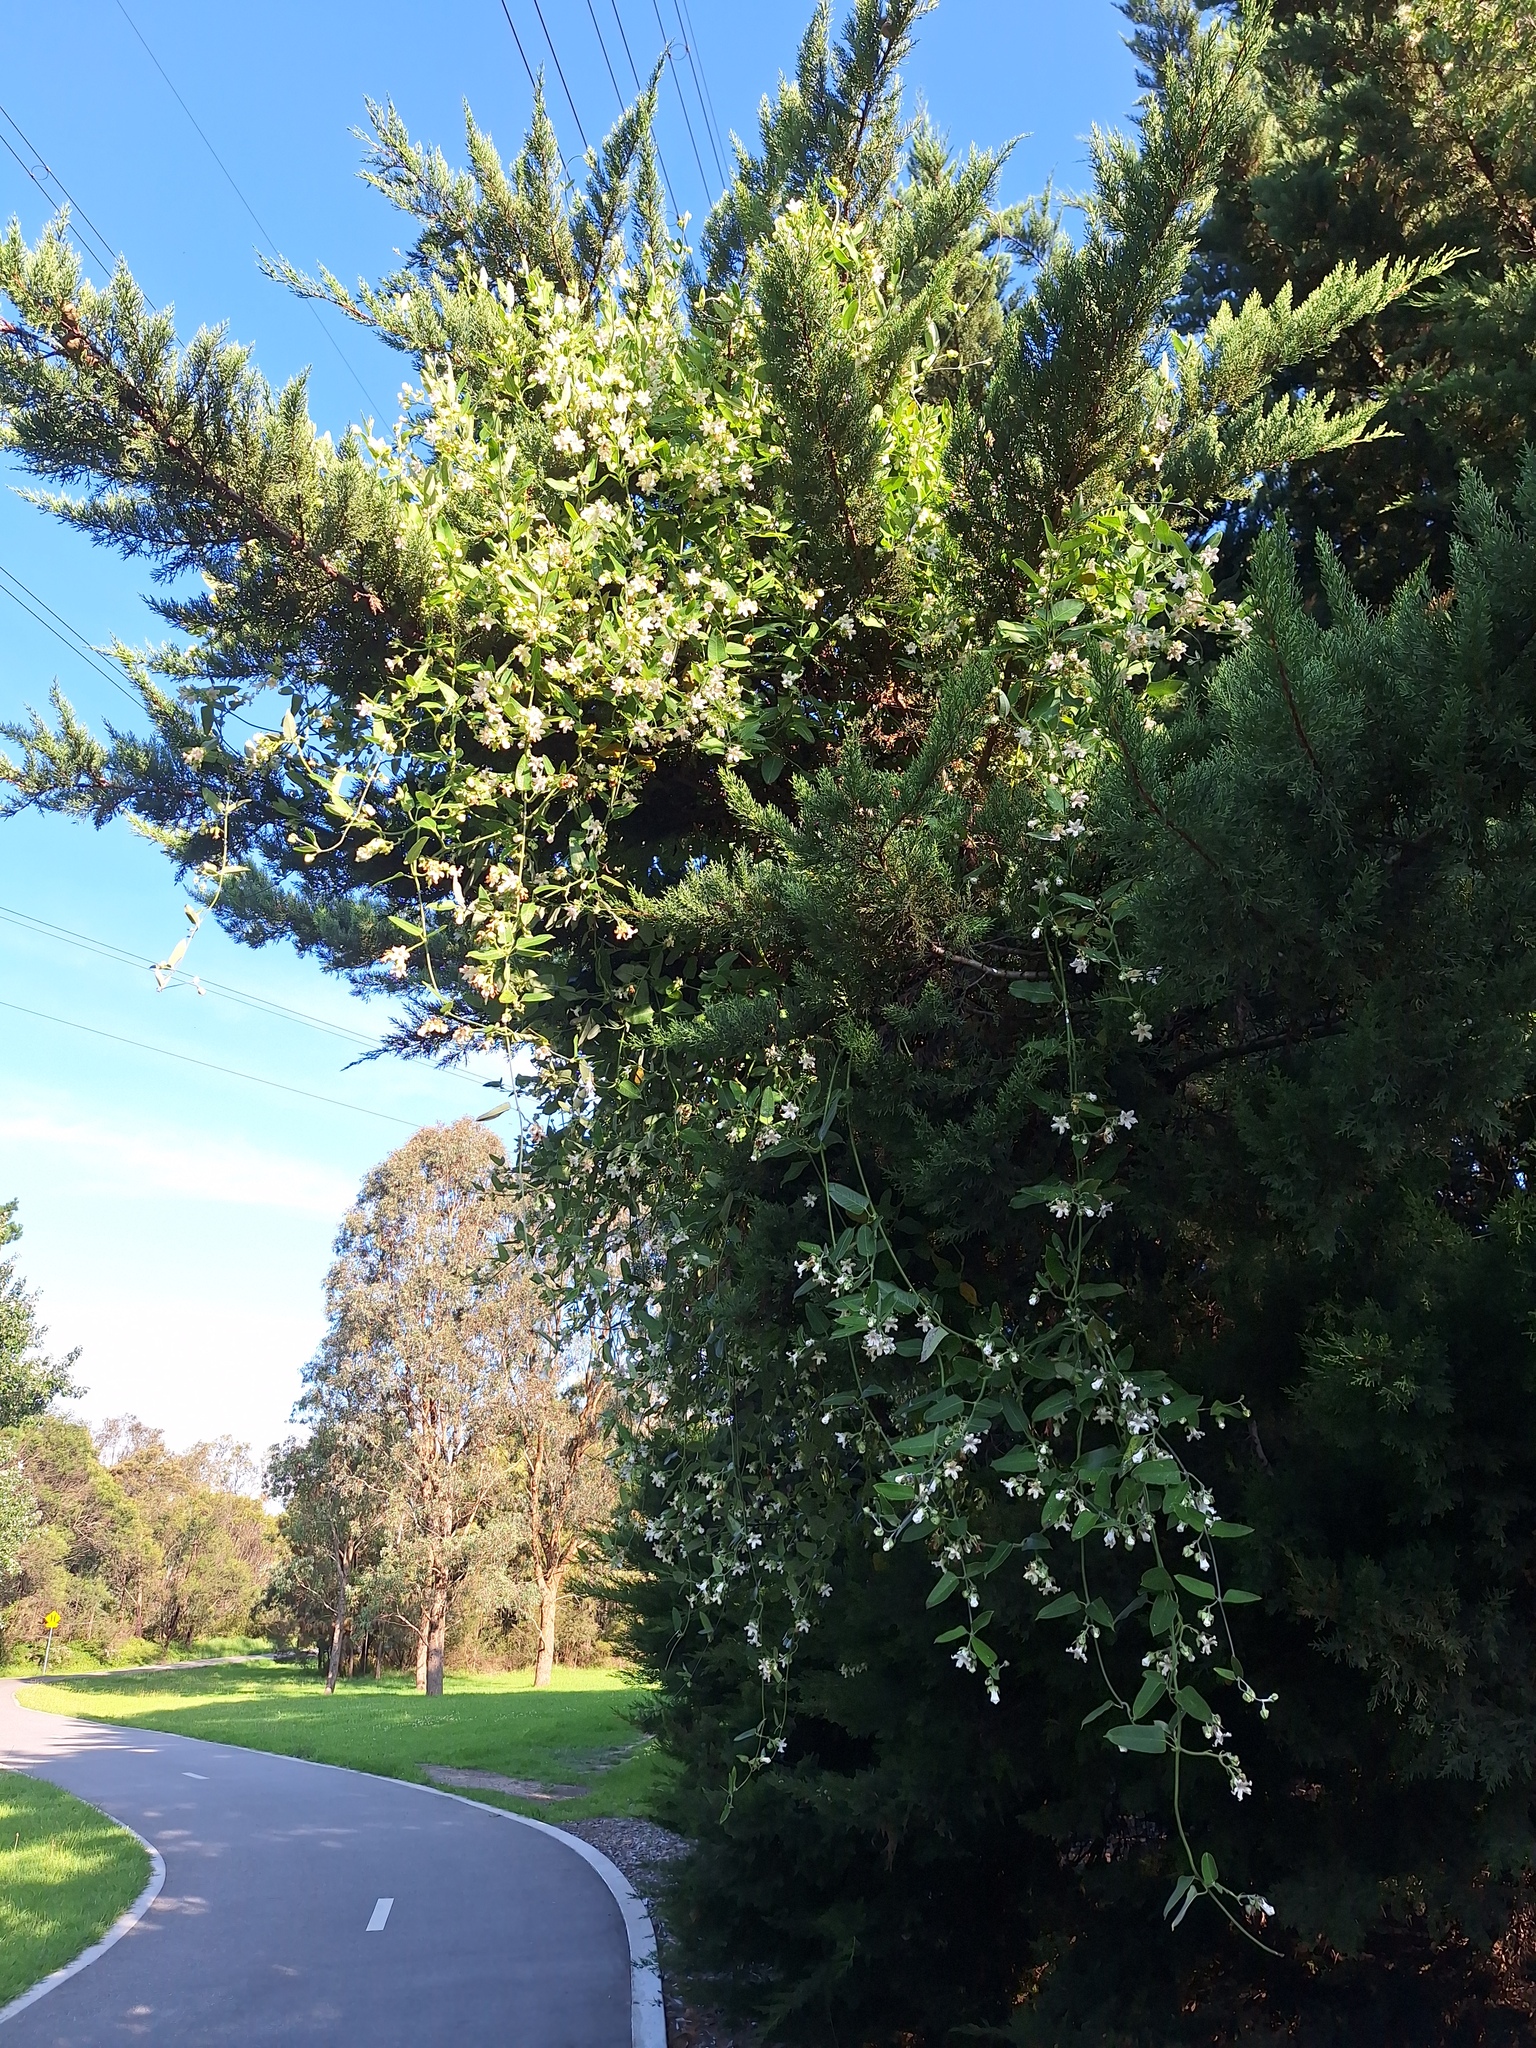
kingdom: Plantae
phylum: Tracheophyta
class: Magnoliopsida
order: Gentianales
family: Apocynaceae
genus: Araujia
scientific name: Araujia sericifera
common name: White bladderflower
